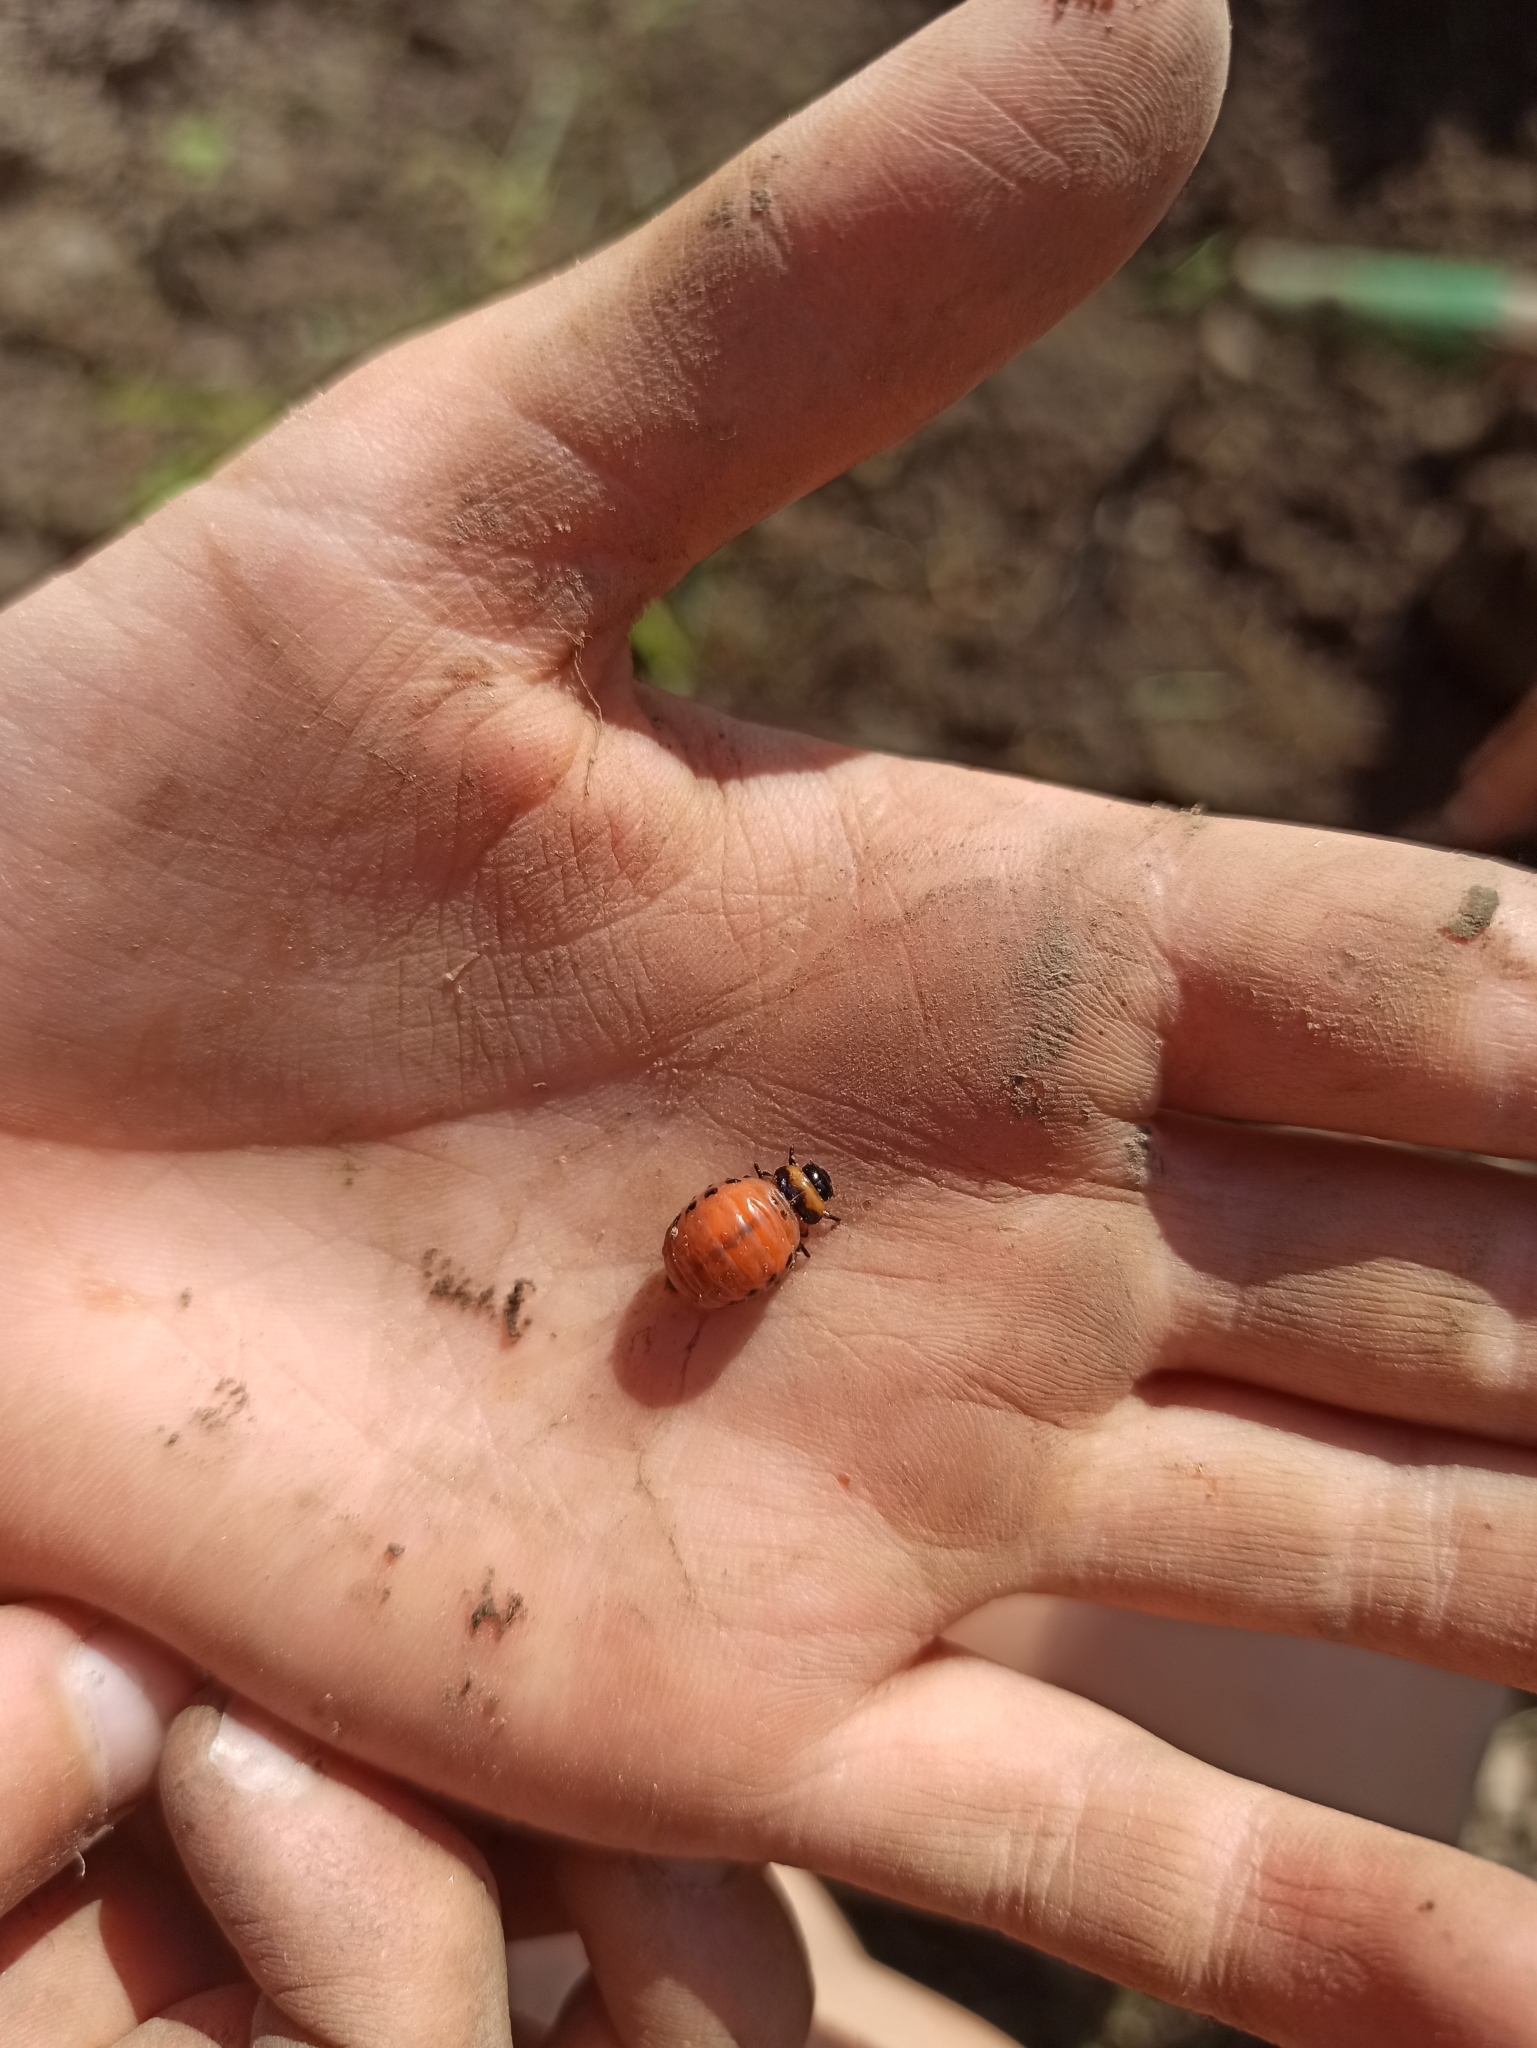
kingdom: Animalia
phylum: Arthropoda
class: Insecta
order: Coleoptera
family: Chrysomelidae
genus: Leptinotarsa
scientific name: Leptinotarsa decemlineata
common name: Colorado potato beetle
